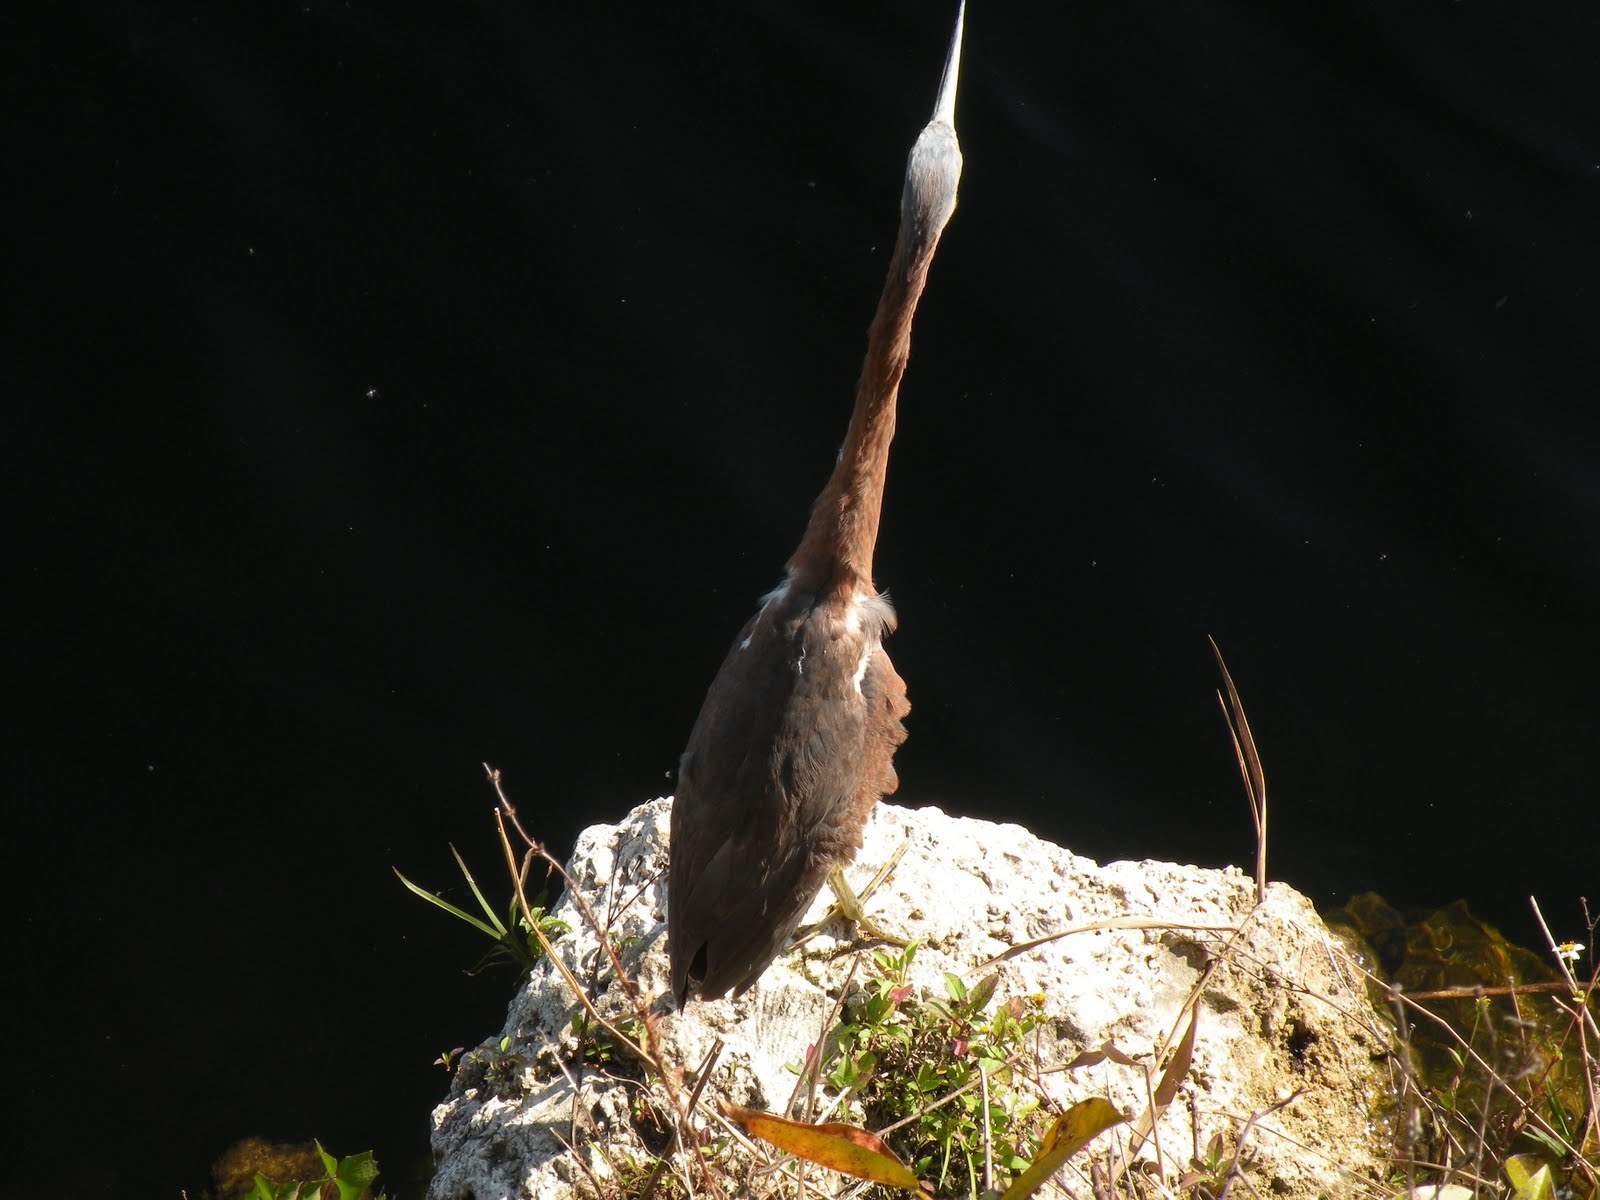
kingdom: Animalia
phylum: Chordata
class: Aves
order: Pelecaniformes
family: Ardeidae
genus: Butorides
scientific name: Butorides virescens
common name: Green heron
